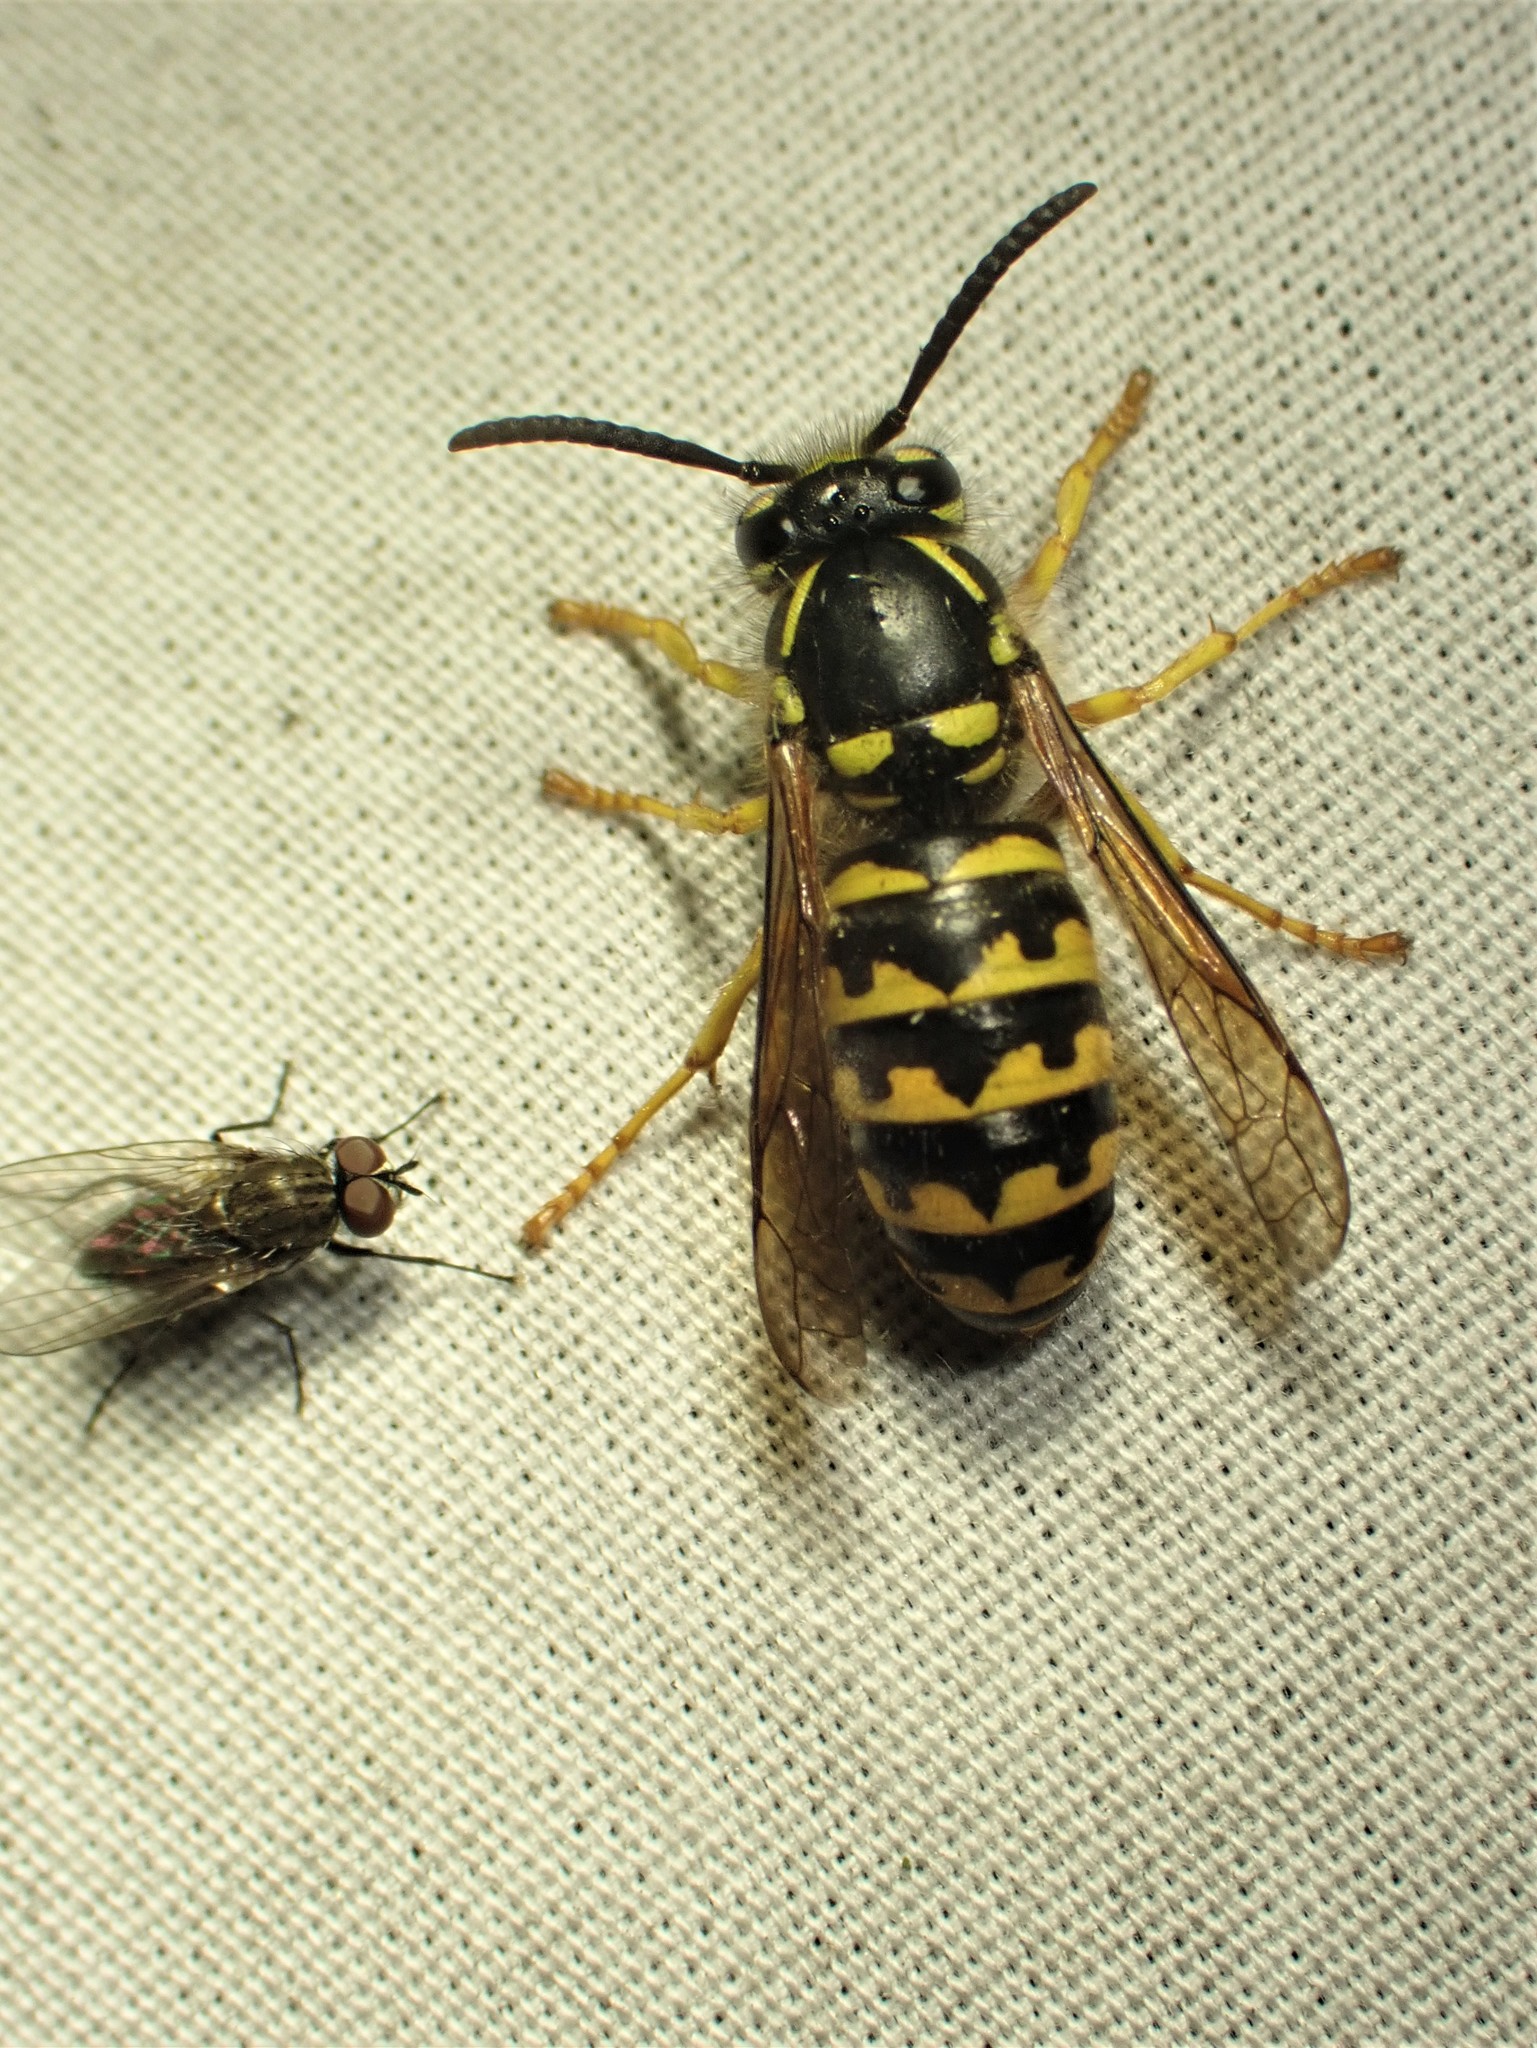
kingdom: Animalia
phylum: Arthropoda
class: Insecta
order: Hymenoptera
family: Vespidae
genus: Dolichovespula
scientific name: Dolichovespula arenaria
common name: Aerial yellowjacket
